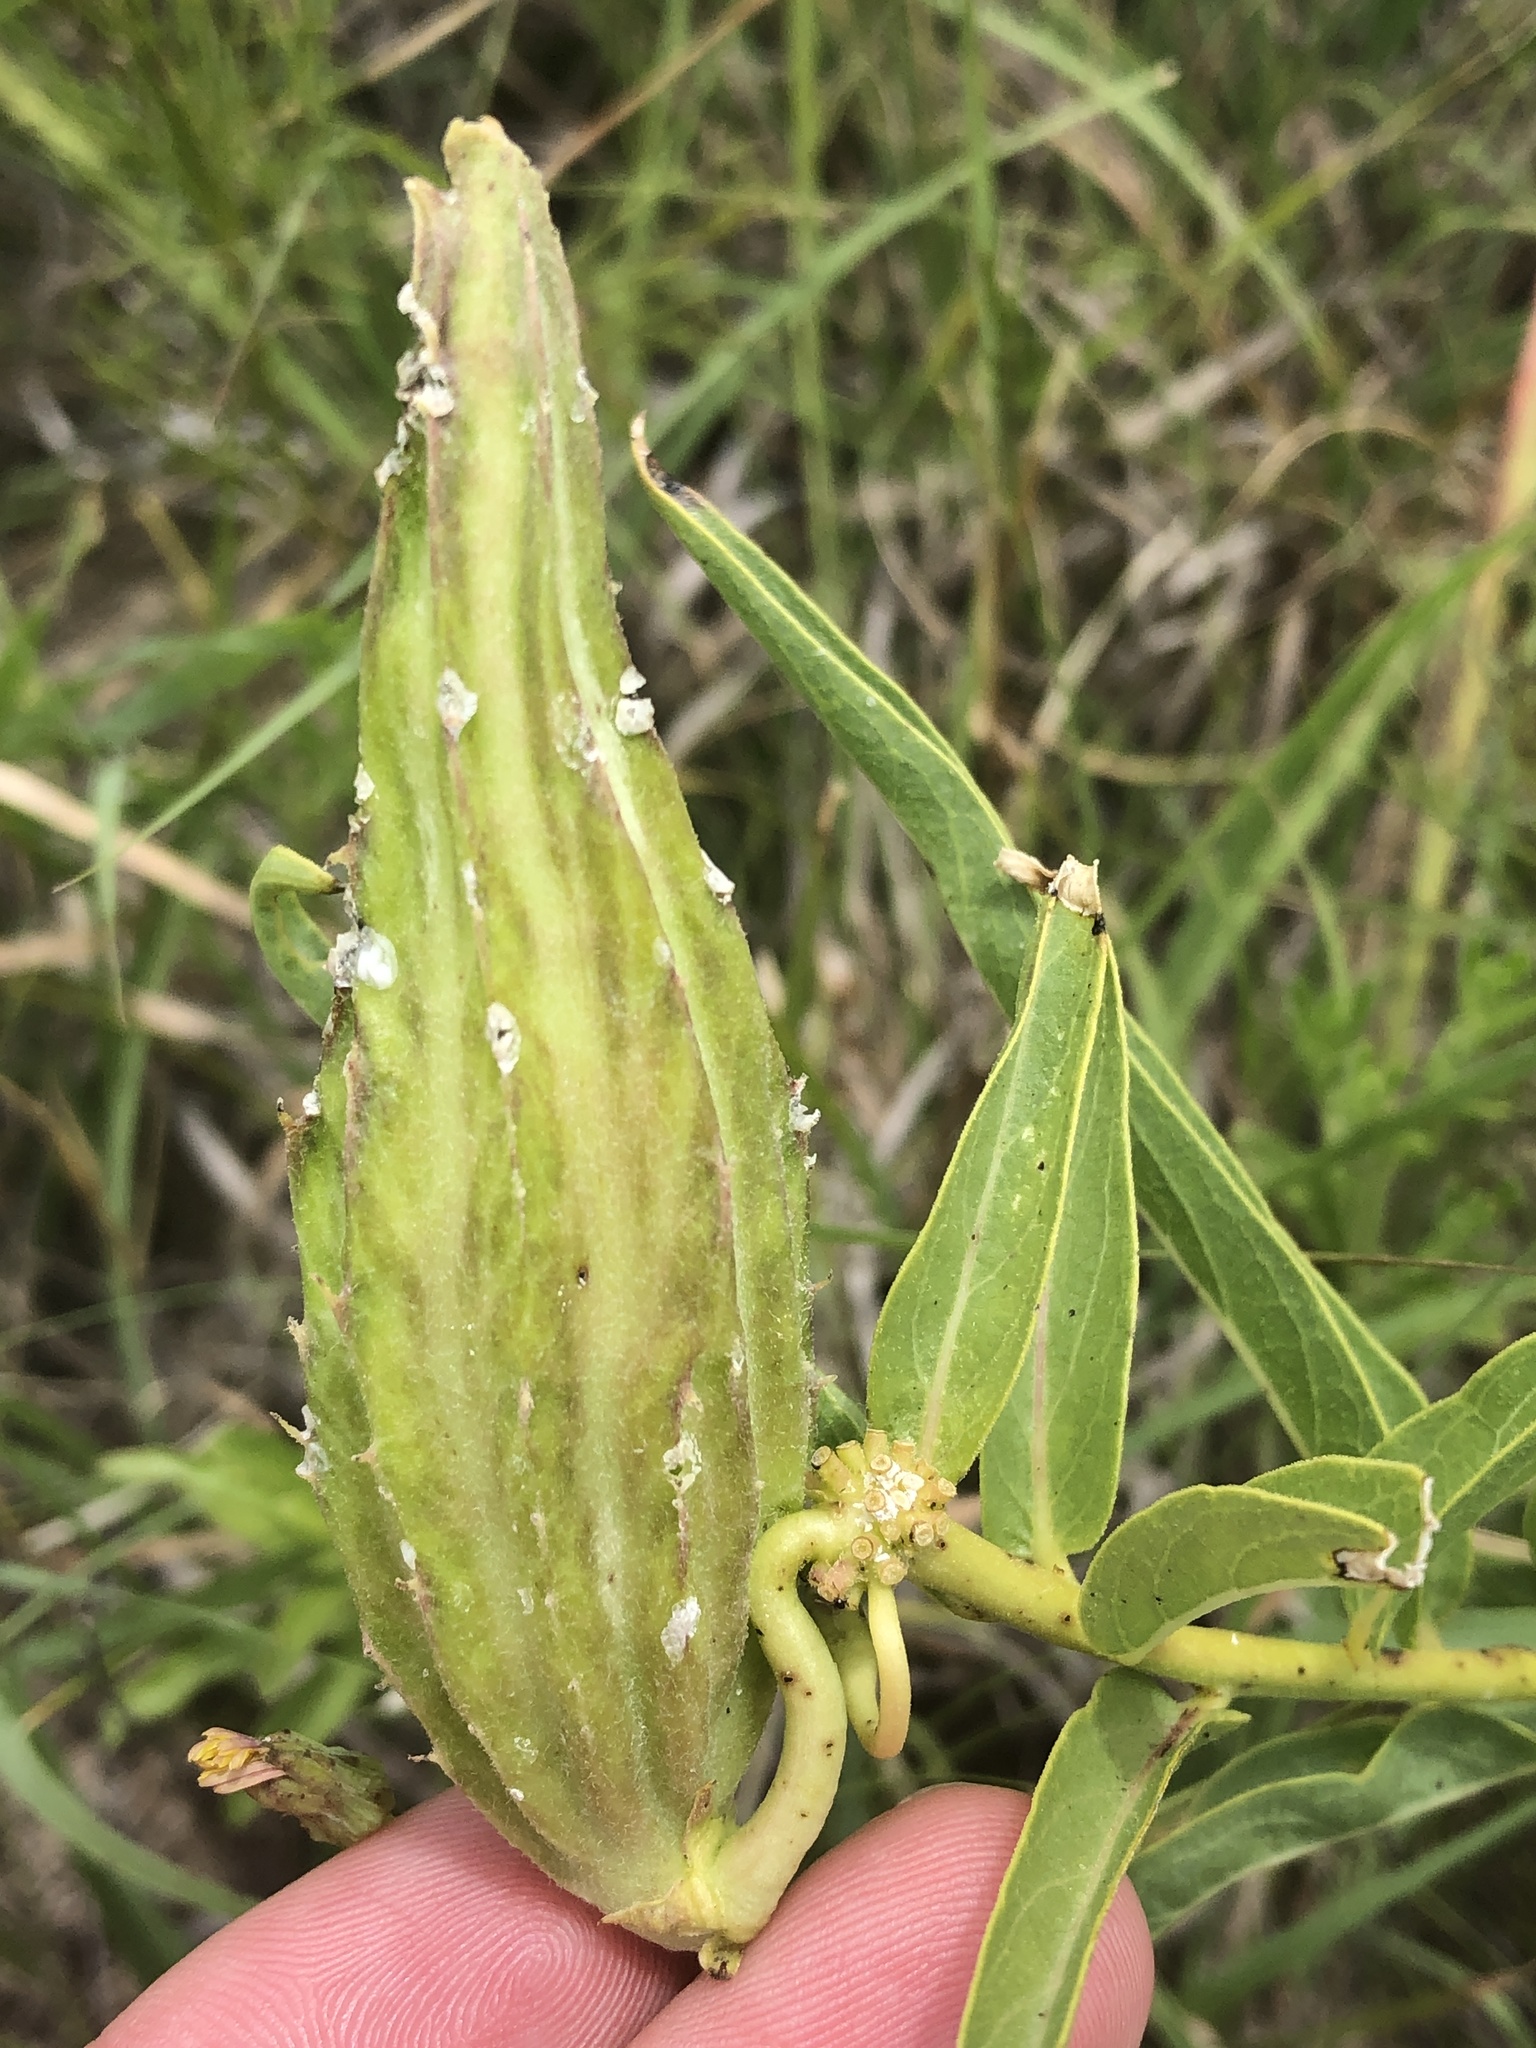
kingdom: Plantae
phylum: Tracheophyta
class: Magnoliopsida
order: Gentianales
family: Apocynaceae
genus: Asclepias
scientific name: Asclepias asperula
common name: Antelope horns
